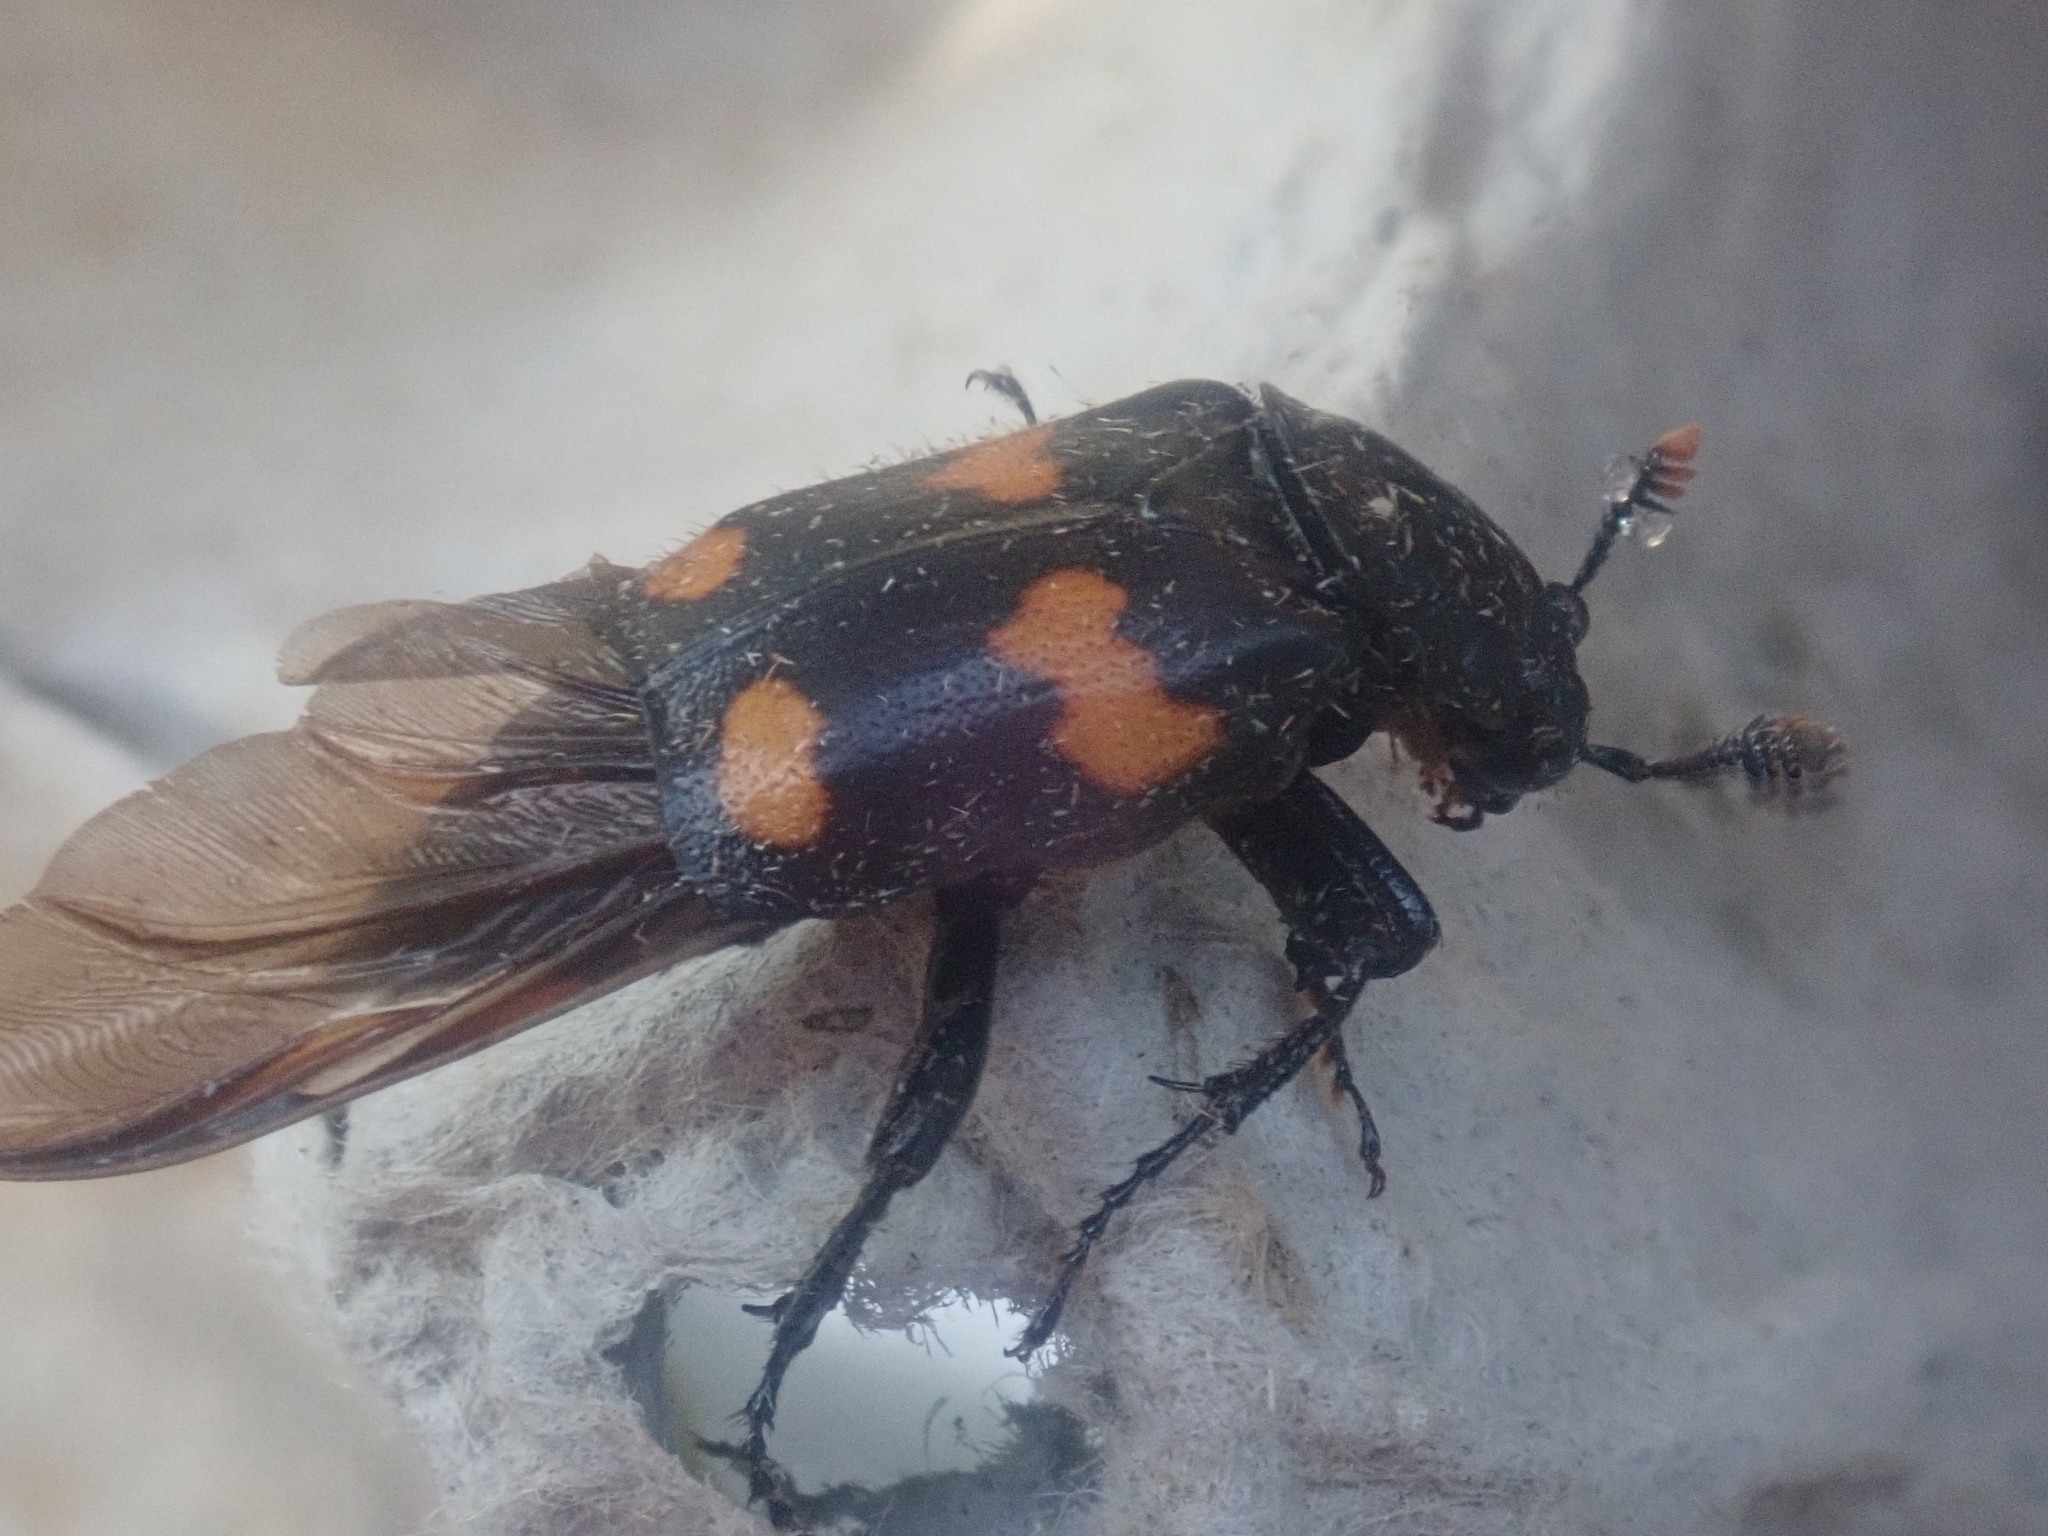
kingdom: Animalia
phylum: Arthropoda
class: Insecta
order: Coleoptera
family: Staphylinidae
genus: Nicrophorus
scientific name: Nicrophorus orbicollis
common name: Roundneck sexton beetle
